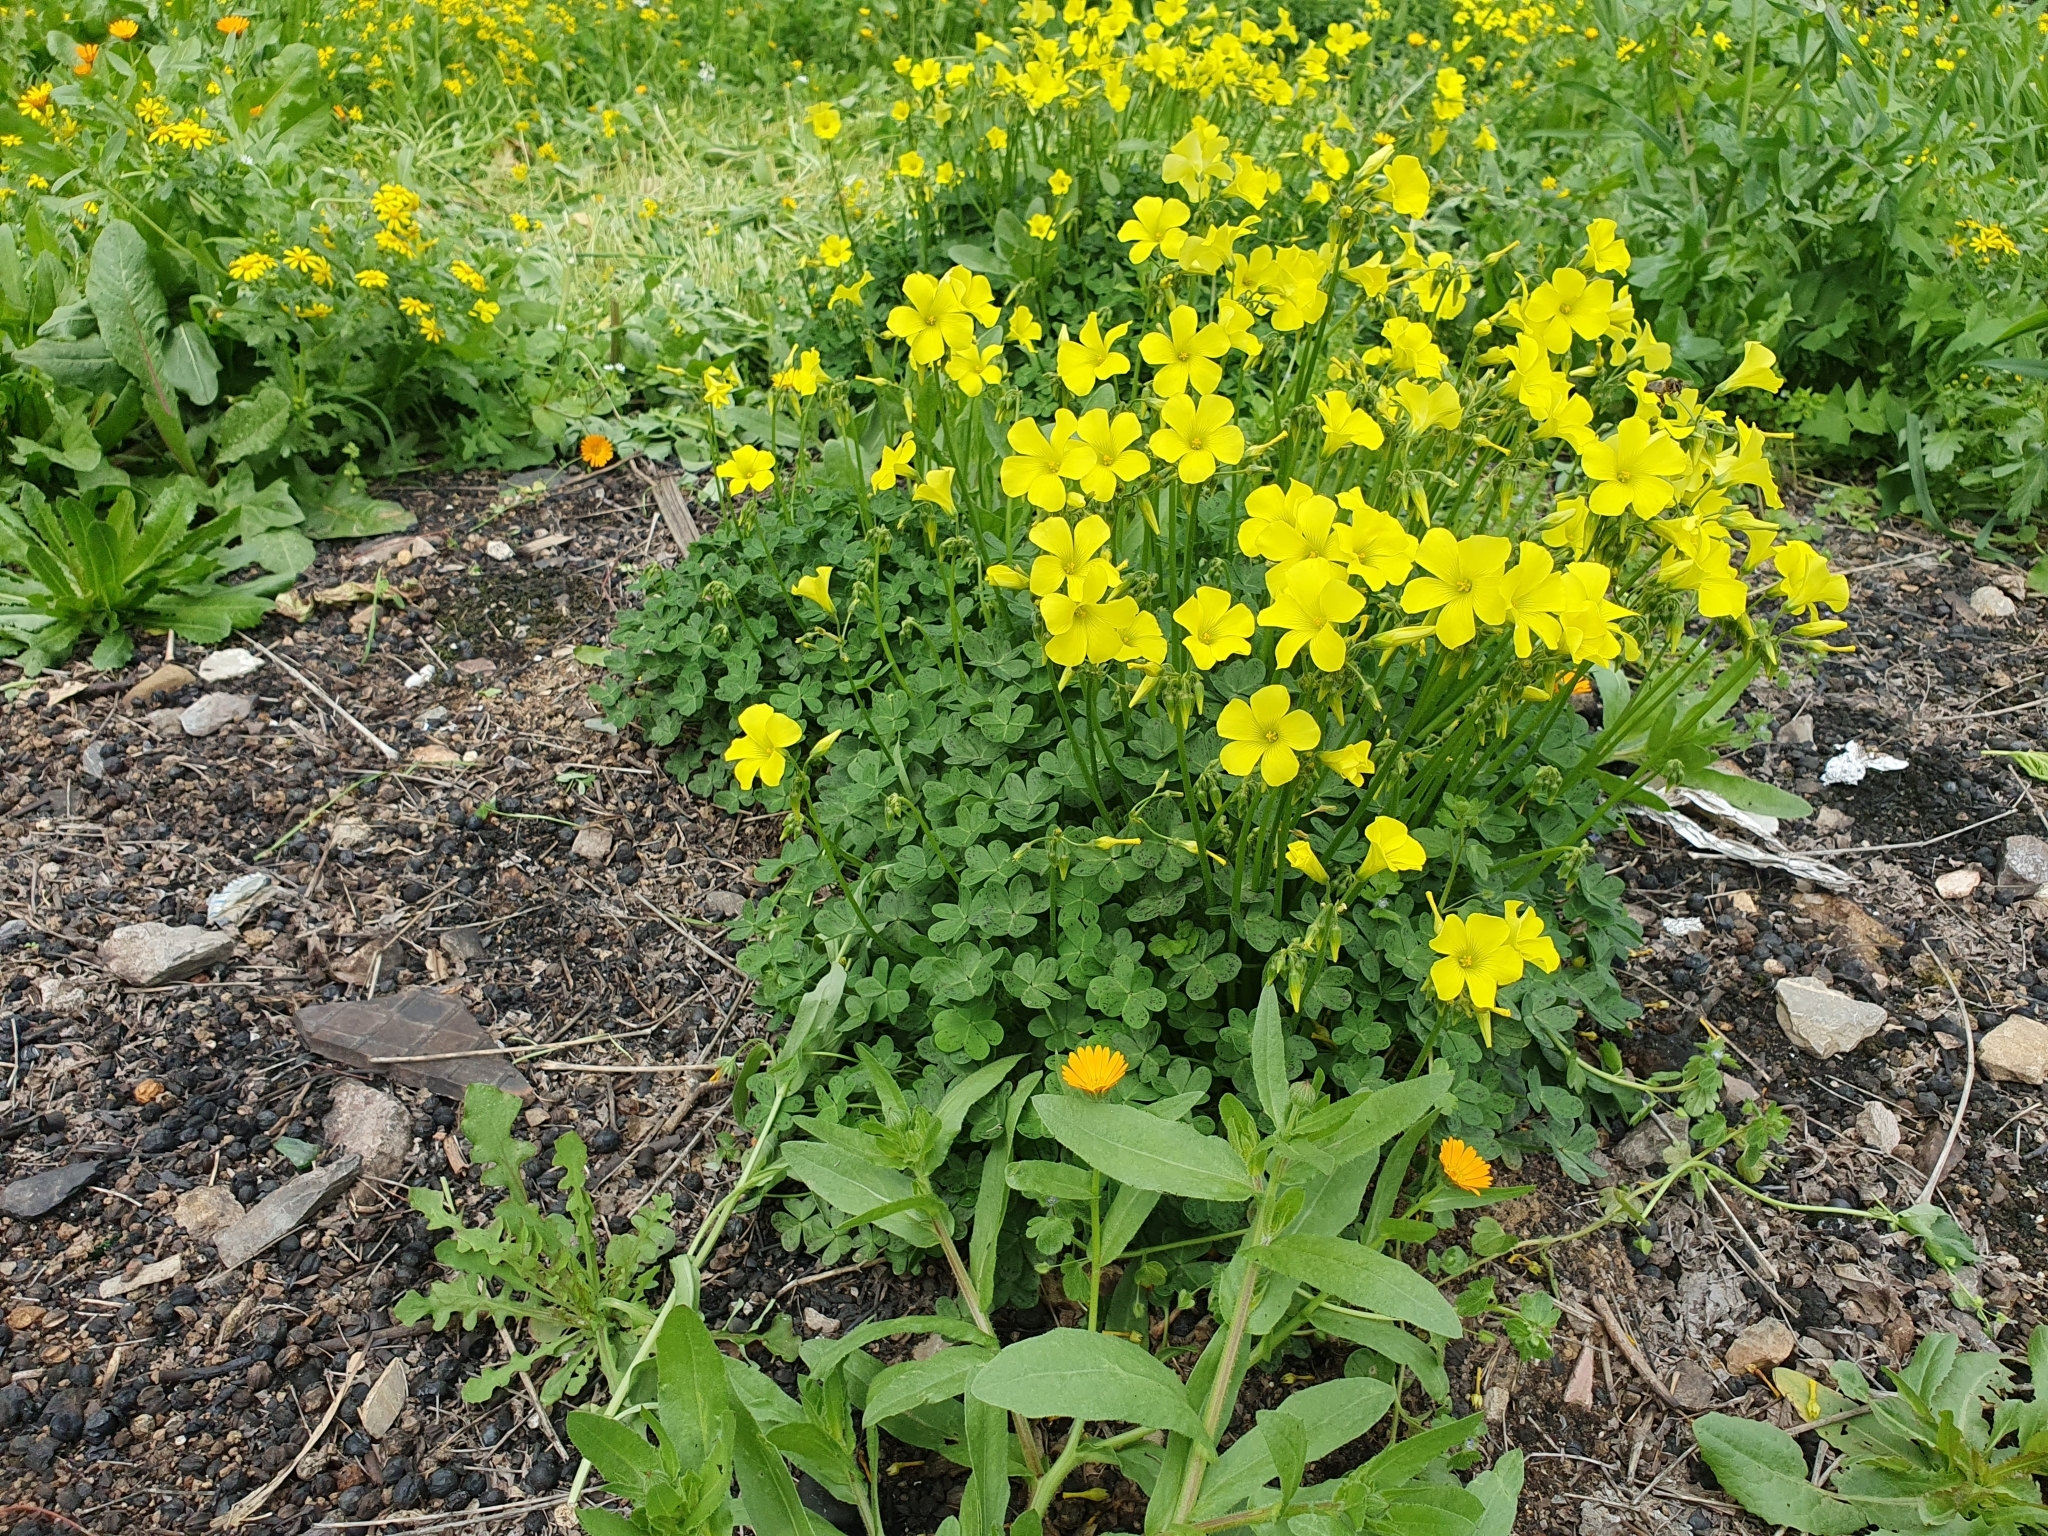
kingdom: Plantae
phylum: Tracheophyta
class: Magnoliopsida
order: Oxalidales
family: Oxalidaceae
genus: Oxalis
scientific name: Oxalis pes-caprae
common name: Bermuda-buttercup
